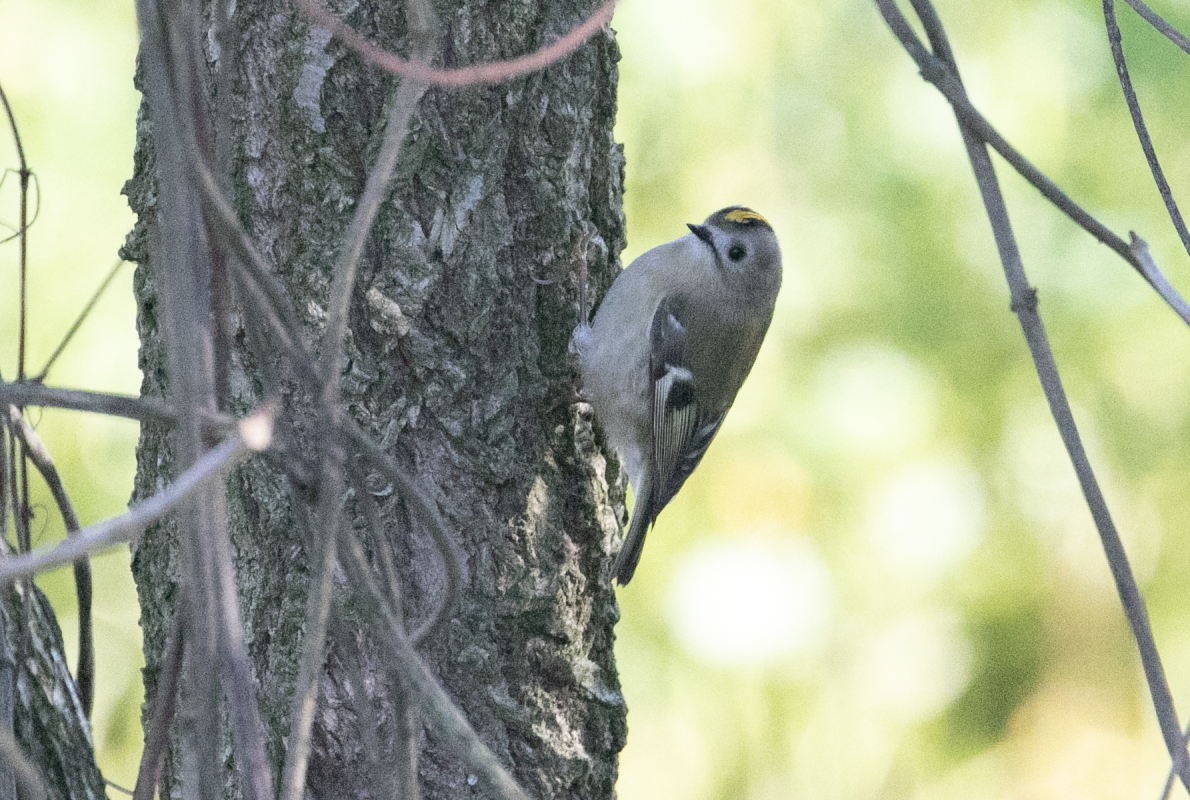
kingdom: Animalia
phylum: Chordata
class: Aves
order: Passeriformes
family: Regulidae
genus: Regulus
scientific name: Regulus regulus
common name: Goldcrest
